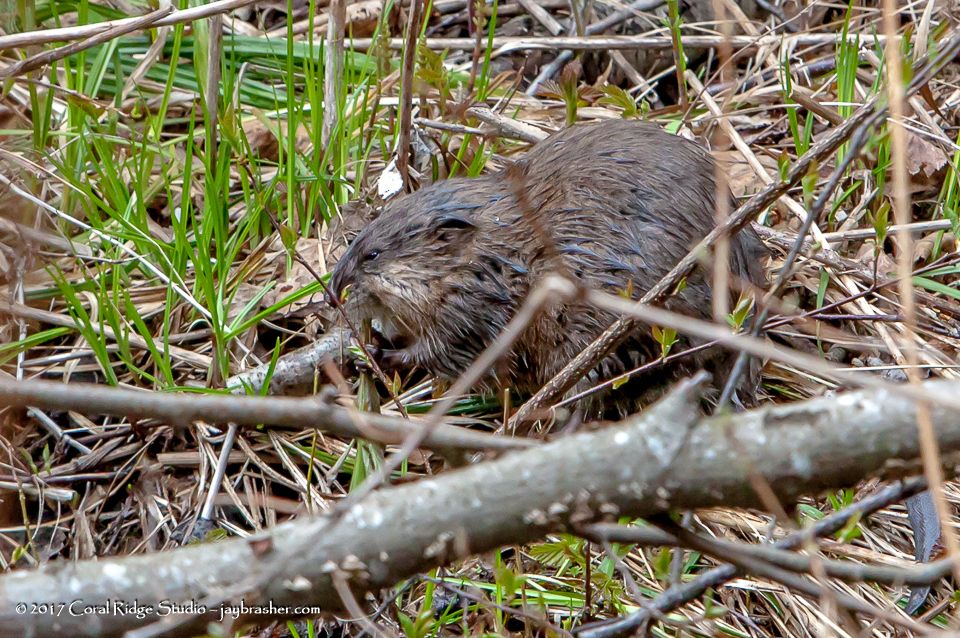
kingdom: Animalia
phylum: Chordata
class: Mammalia
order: Rodentia
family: Cricetidae
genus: Ondatra
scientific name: Ondatra zibethicus
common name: Muskrat
